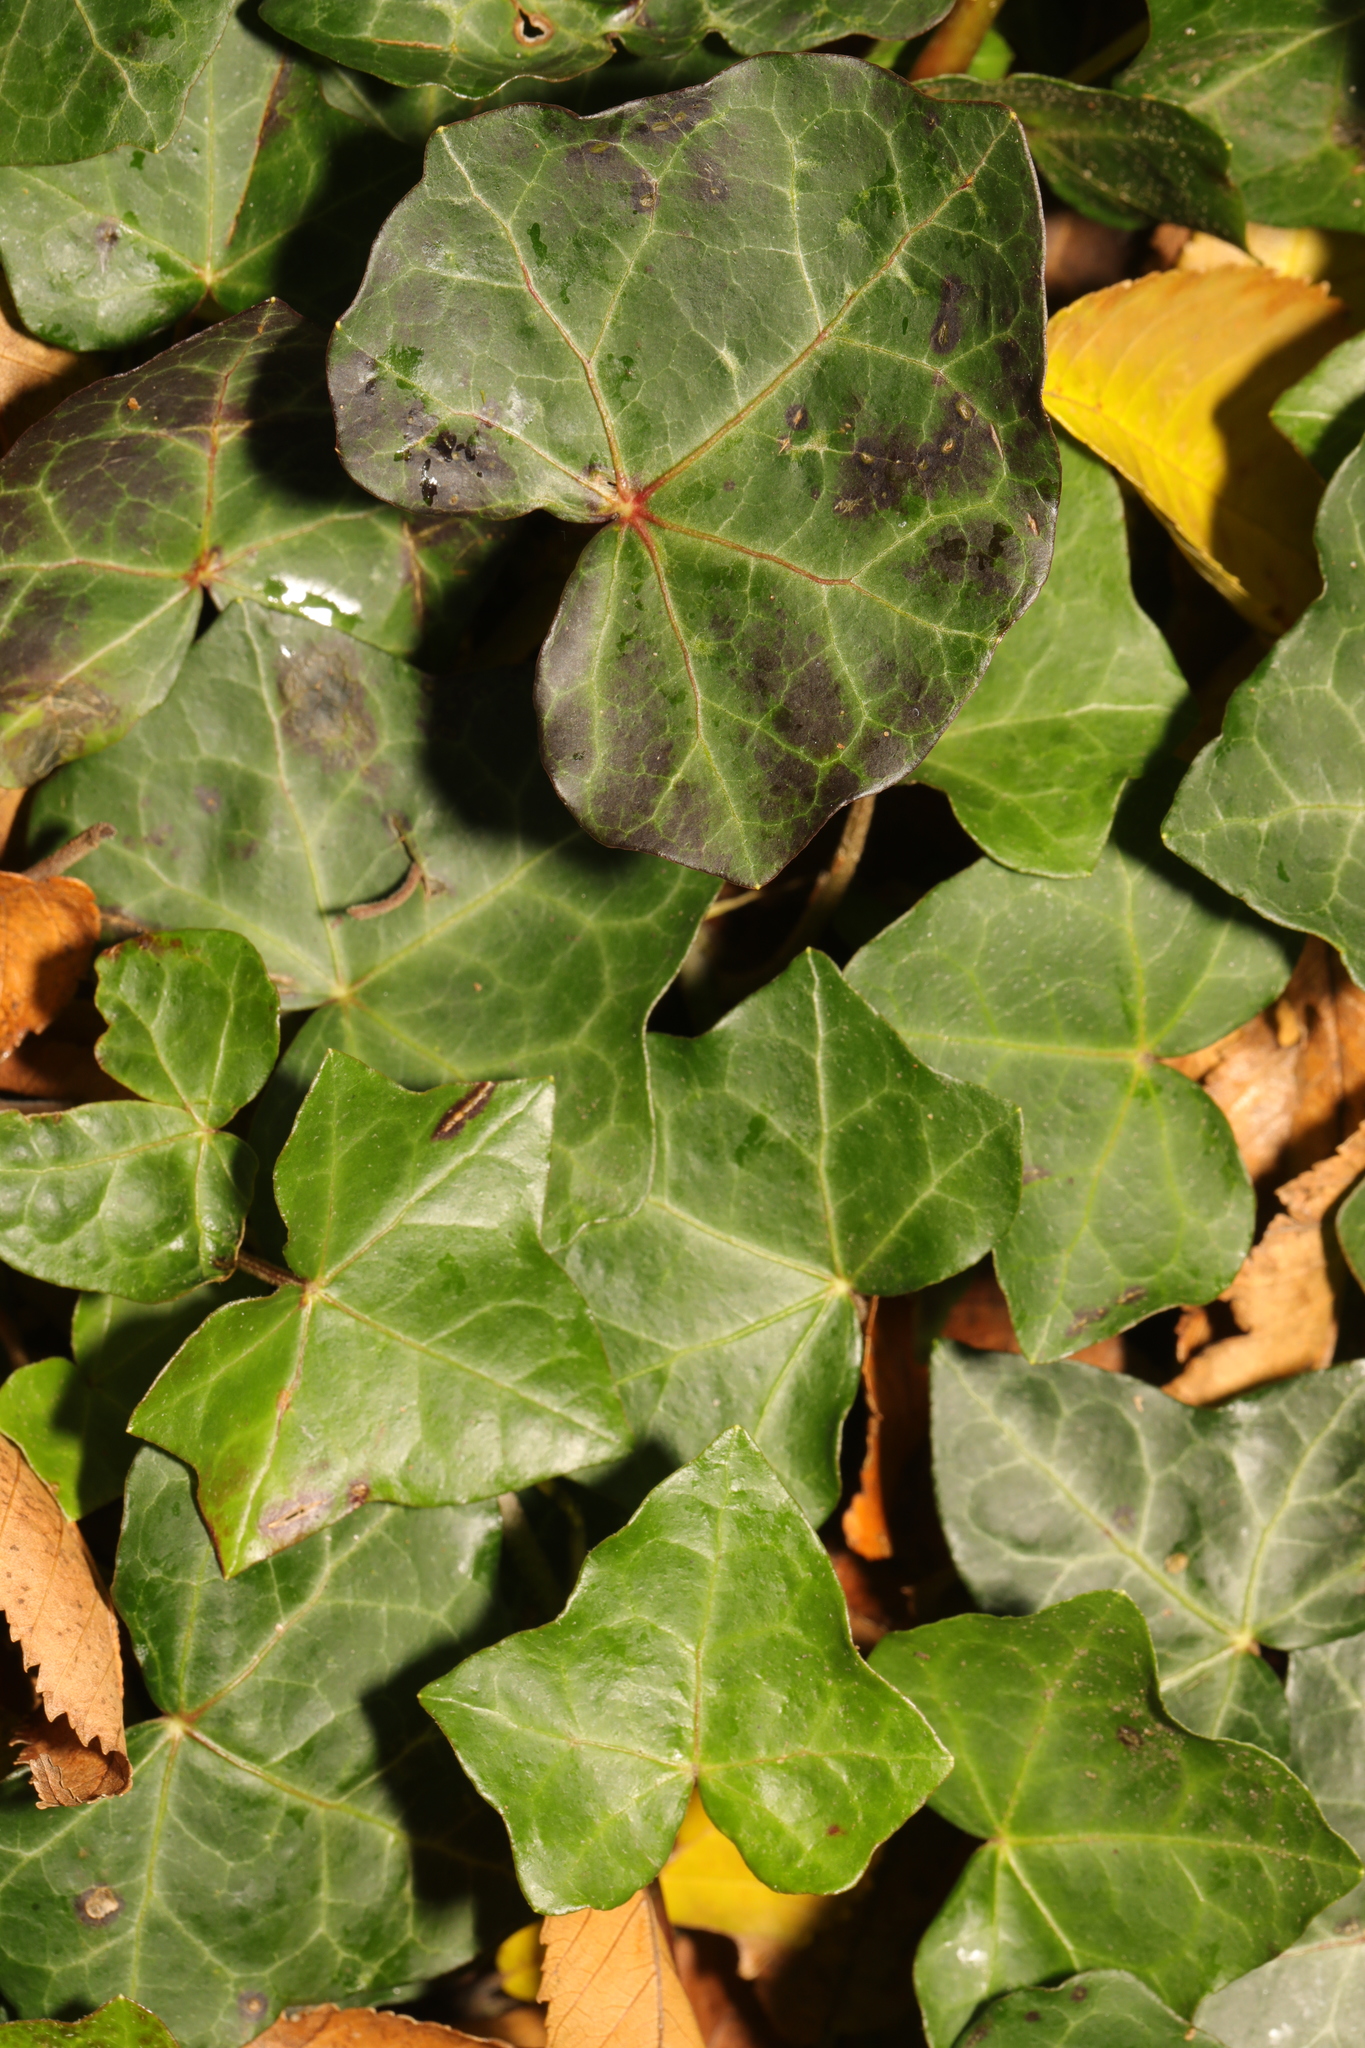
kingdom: Plantae
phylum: Tracheophyta
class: Magnoliopsida
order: Apiales
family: Araliaceae
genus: Hedera
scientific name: Hedera helix
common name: Ivy
